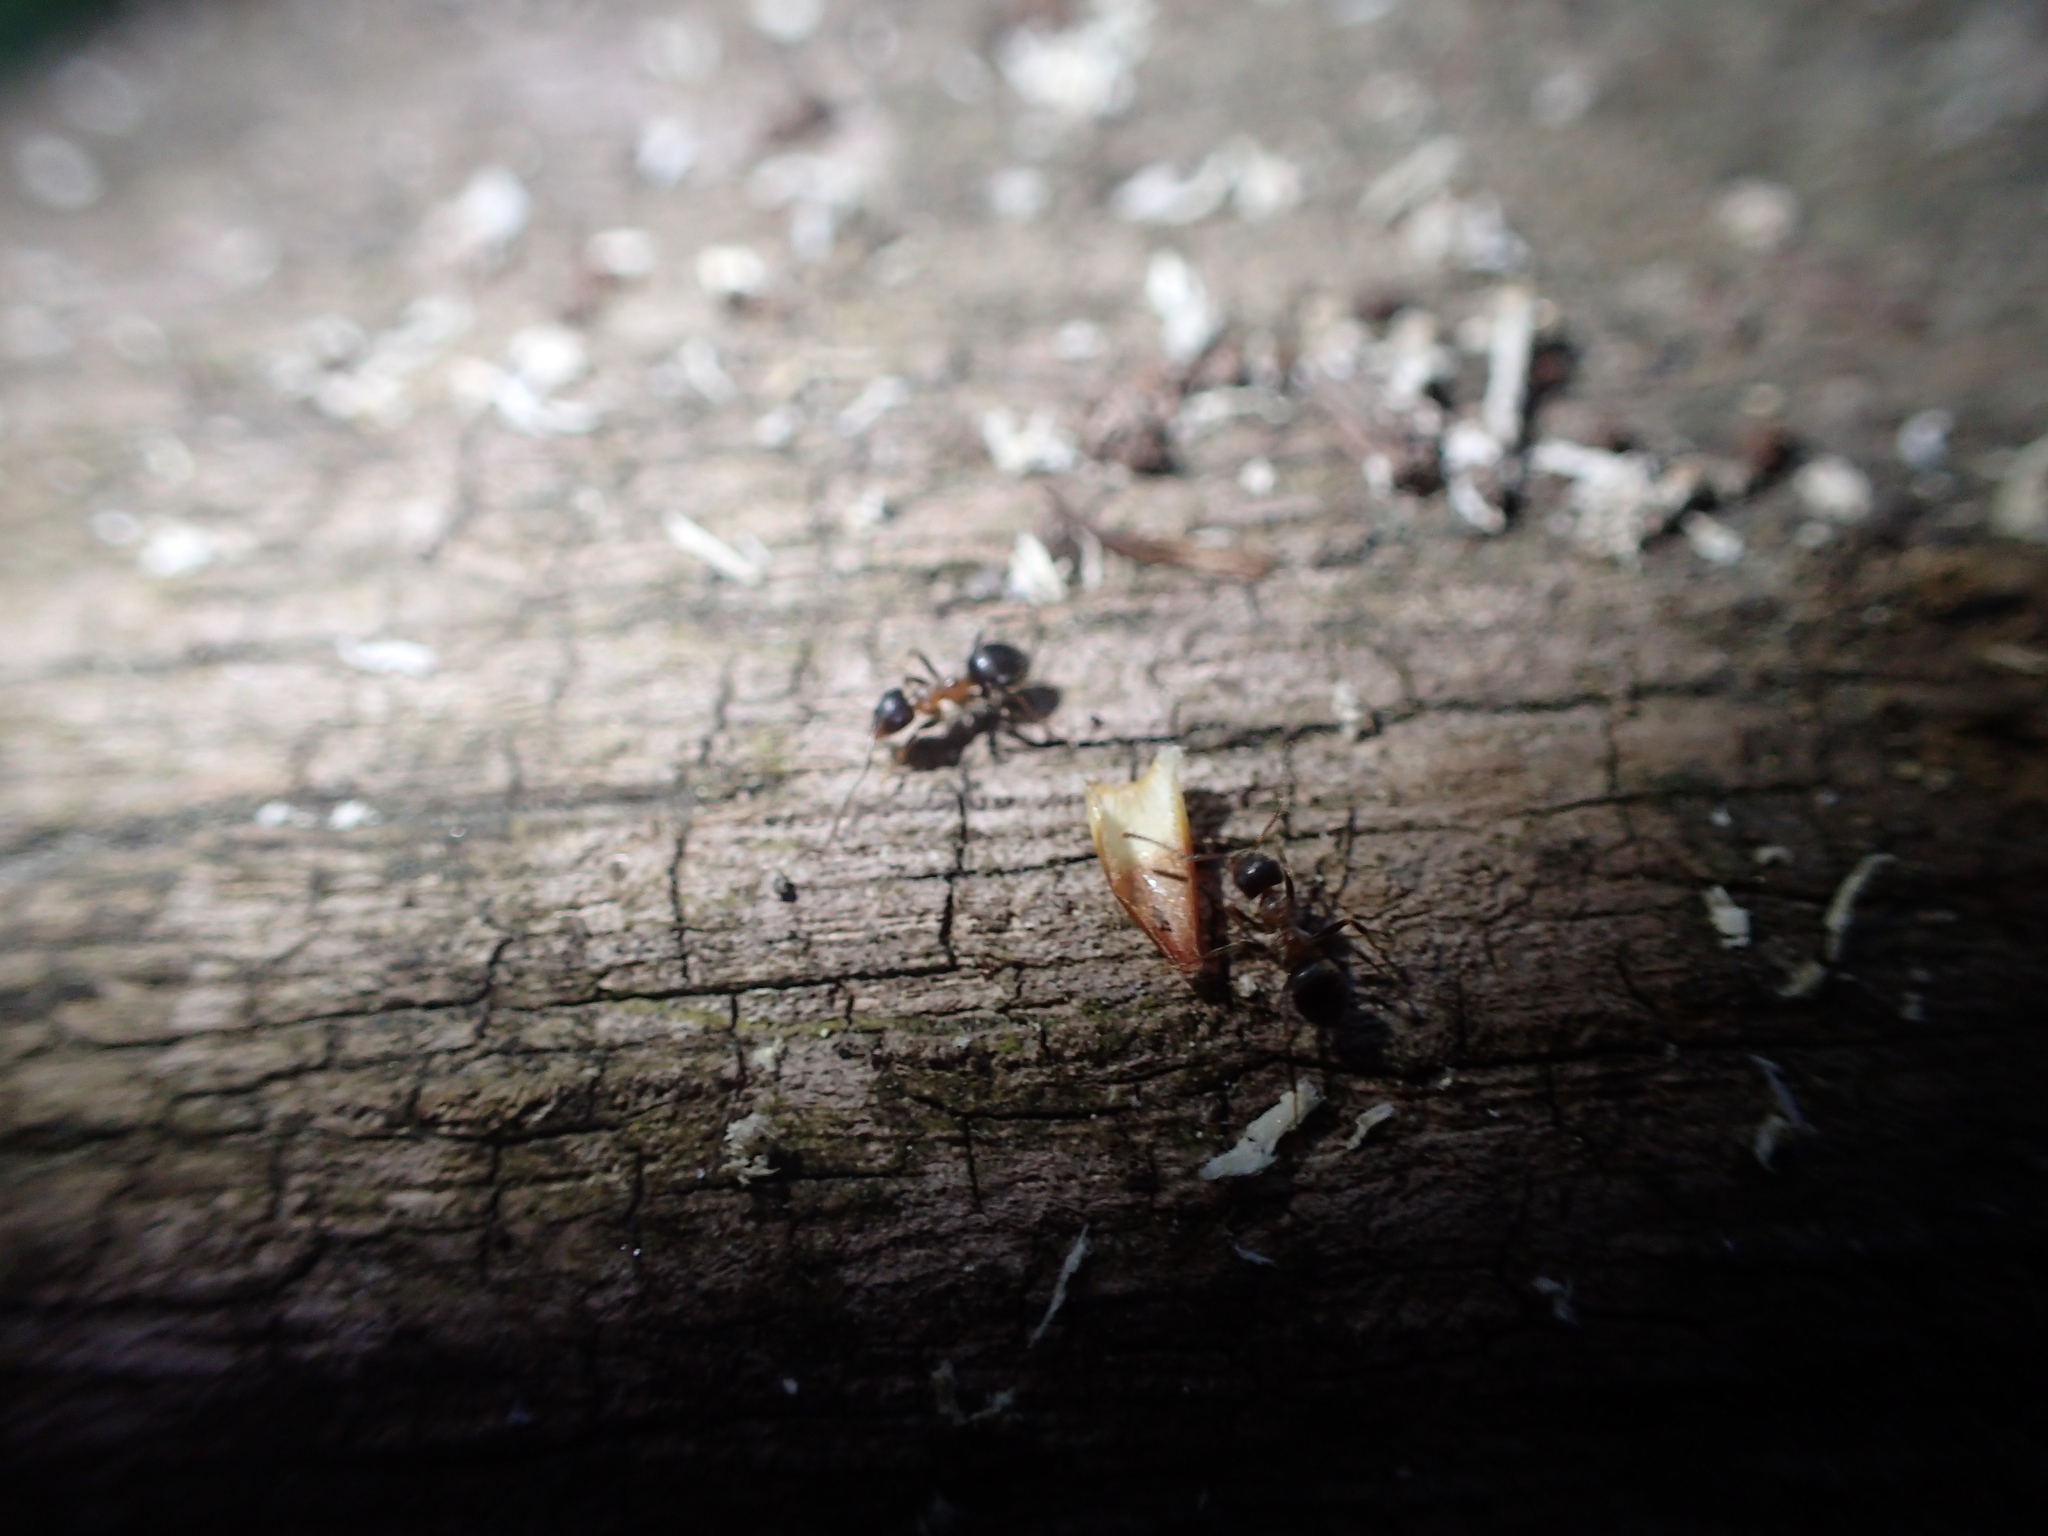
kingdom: Animalia
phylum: Arthropoda
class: Insecta
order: Hymenoptera
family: Formicidae
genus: Lasius
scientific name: Lasius emarginatus
